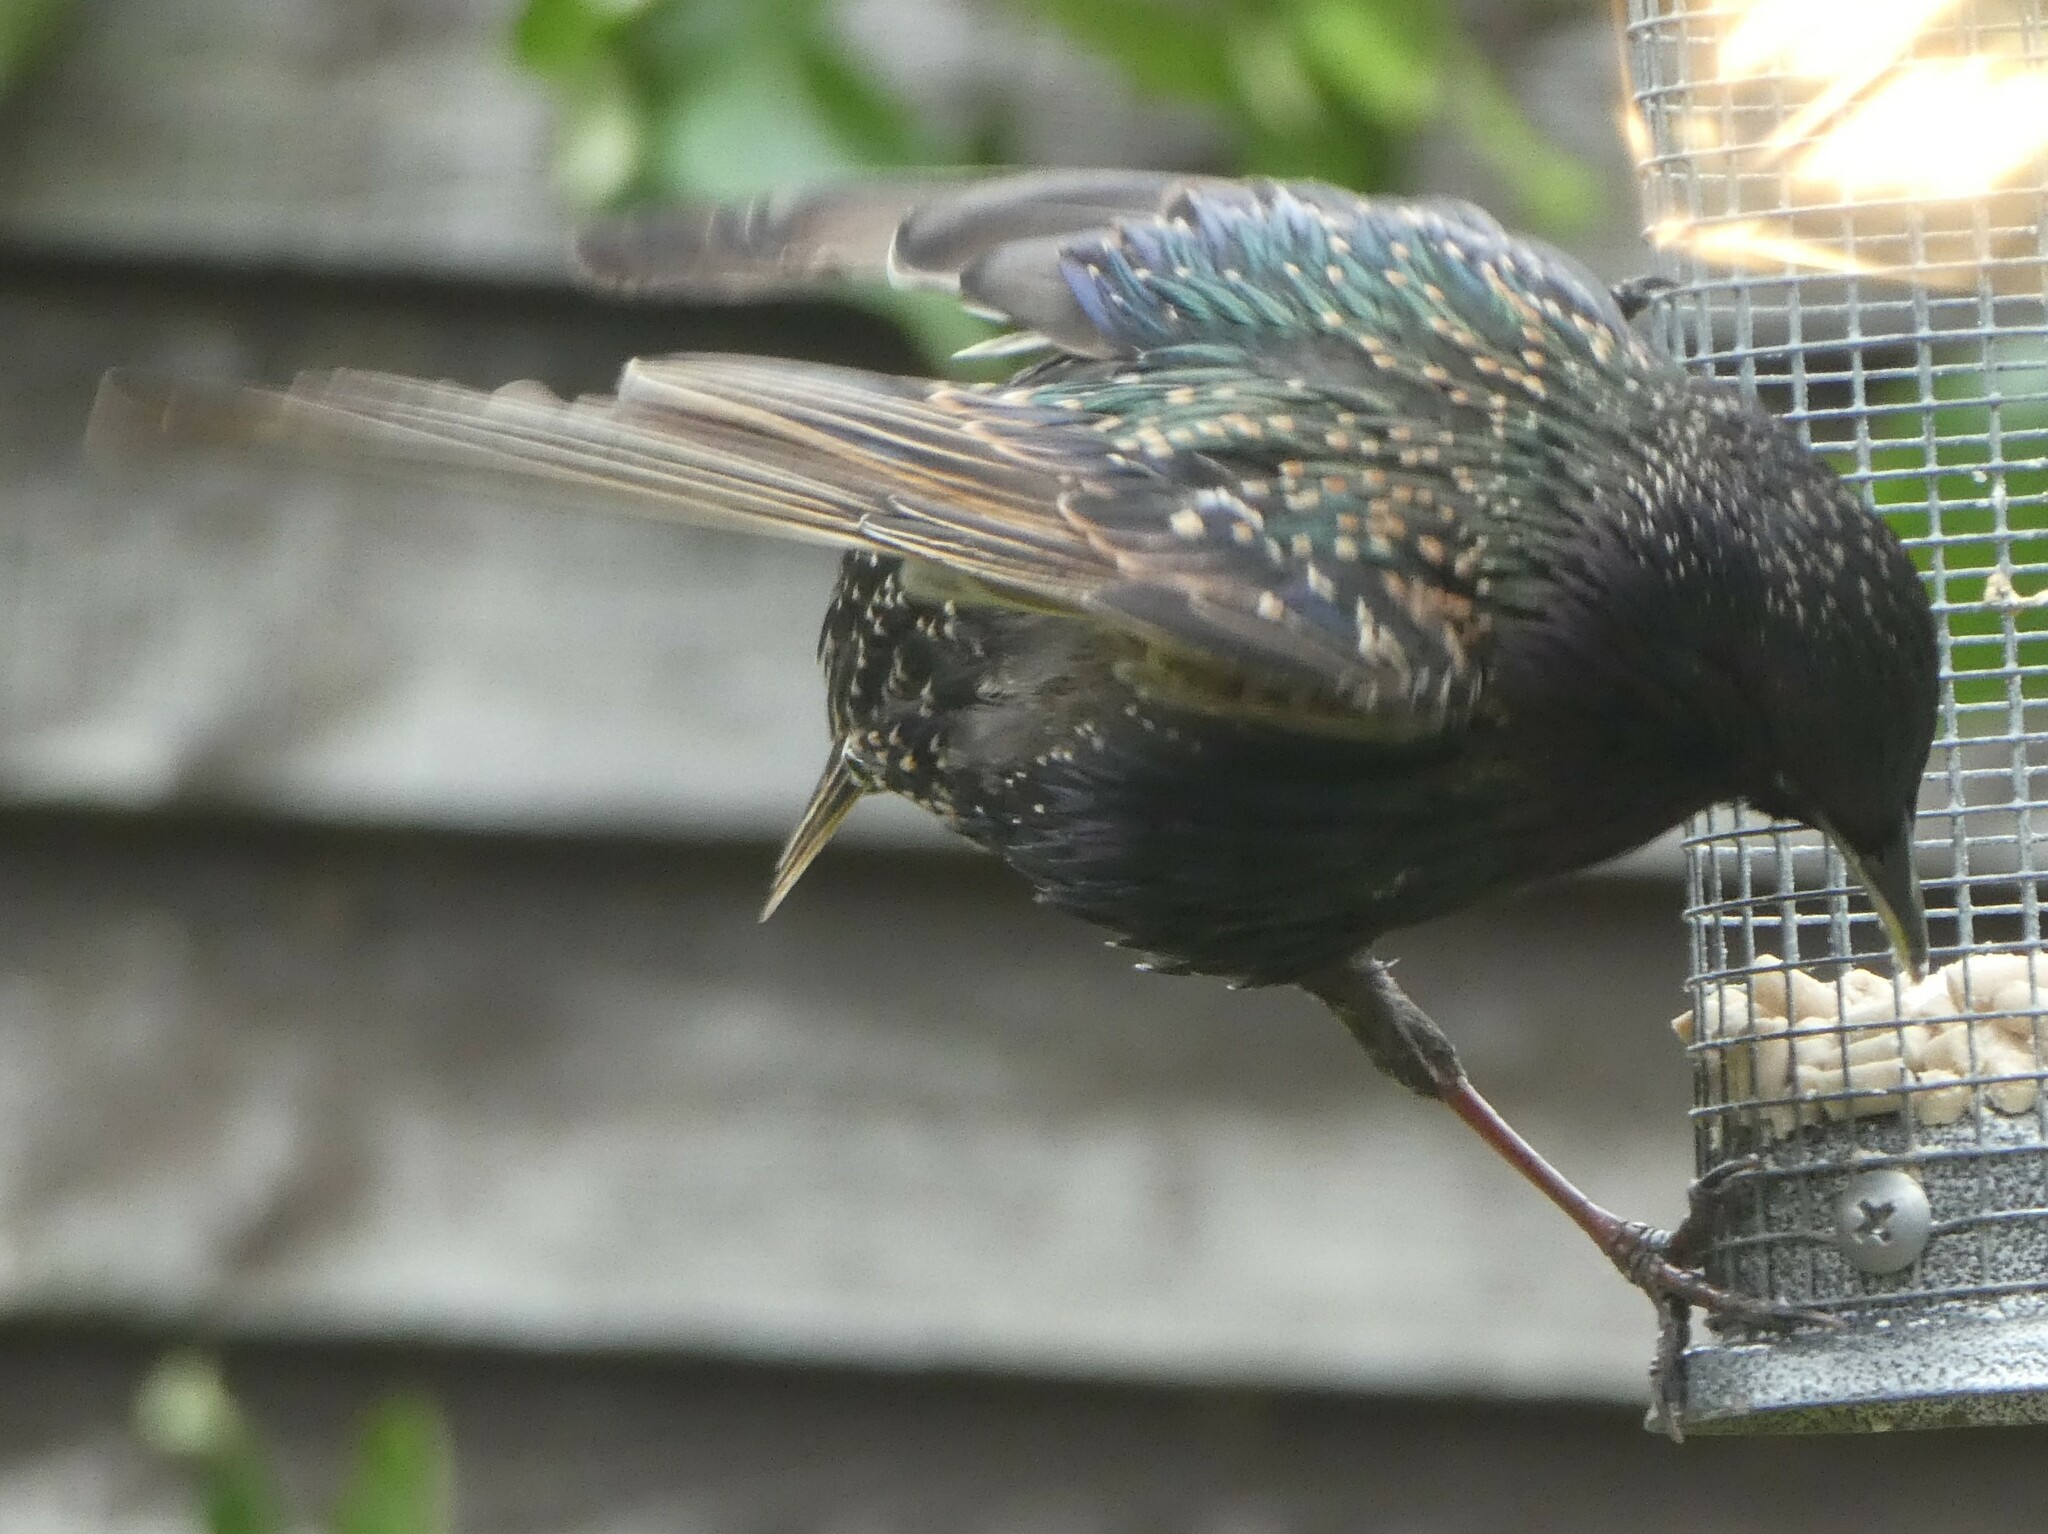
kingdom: Animalia
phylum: Chordata
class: Aves
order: Passeriformes
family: Sturnidae
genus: Sturnus
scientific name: Sturnus vulgaris
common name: Common starling
